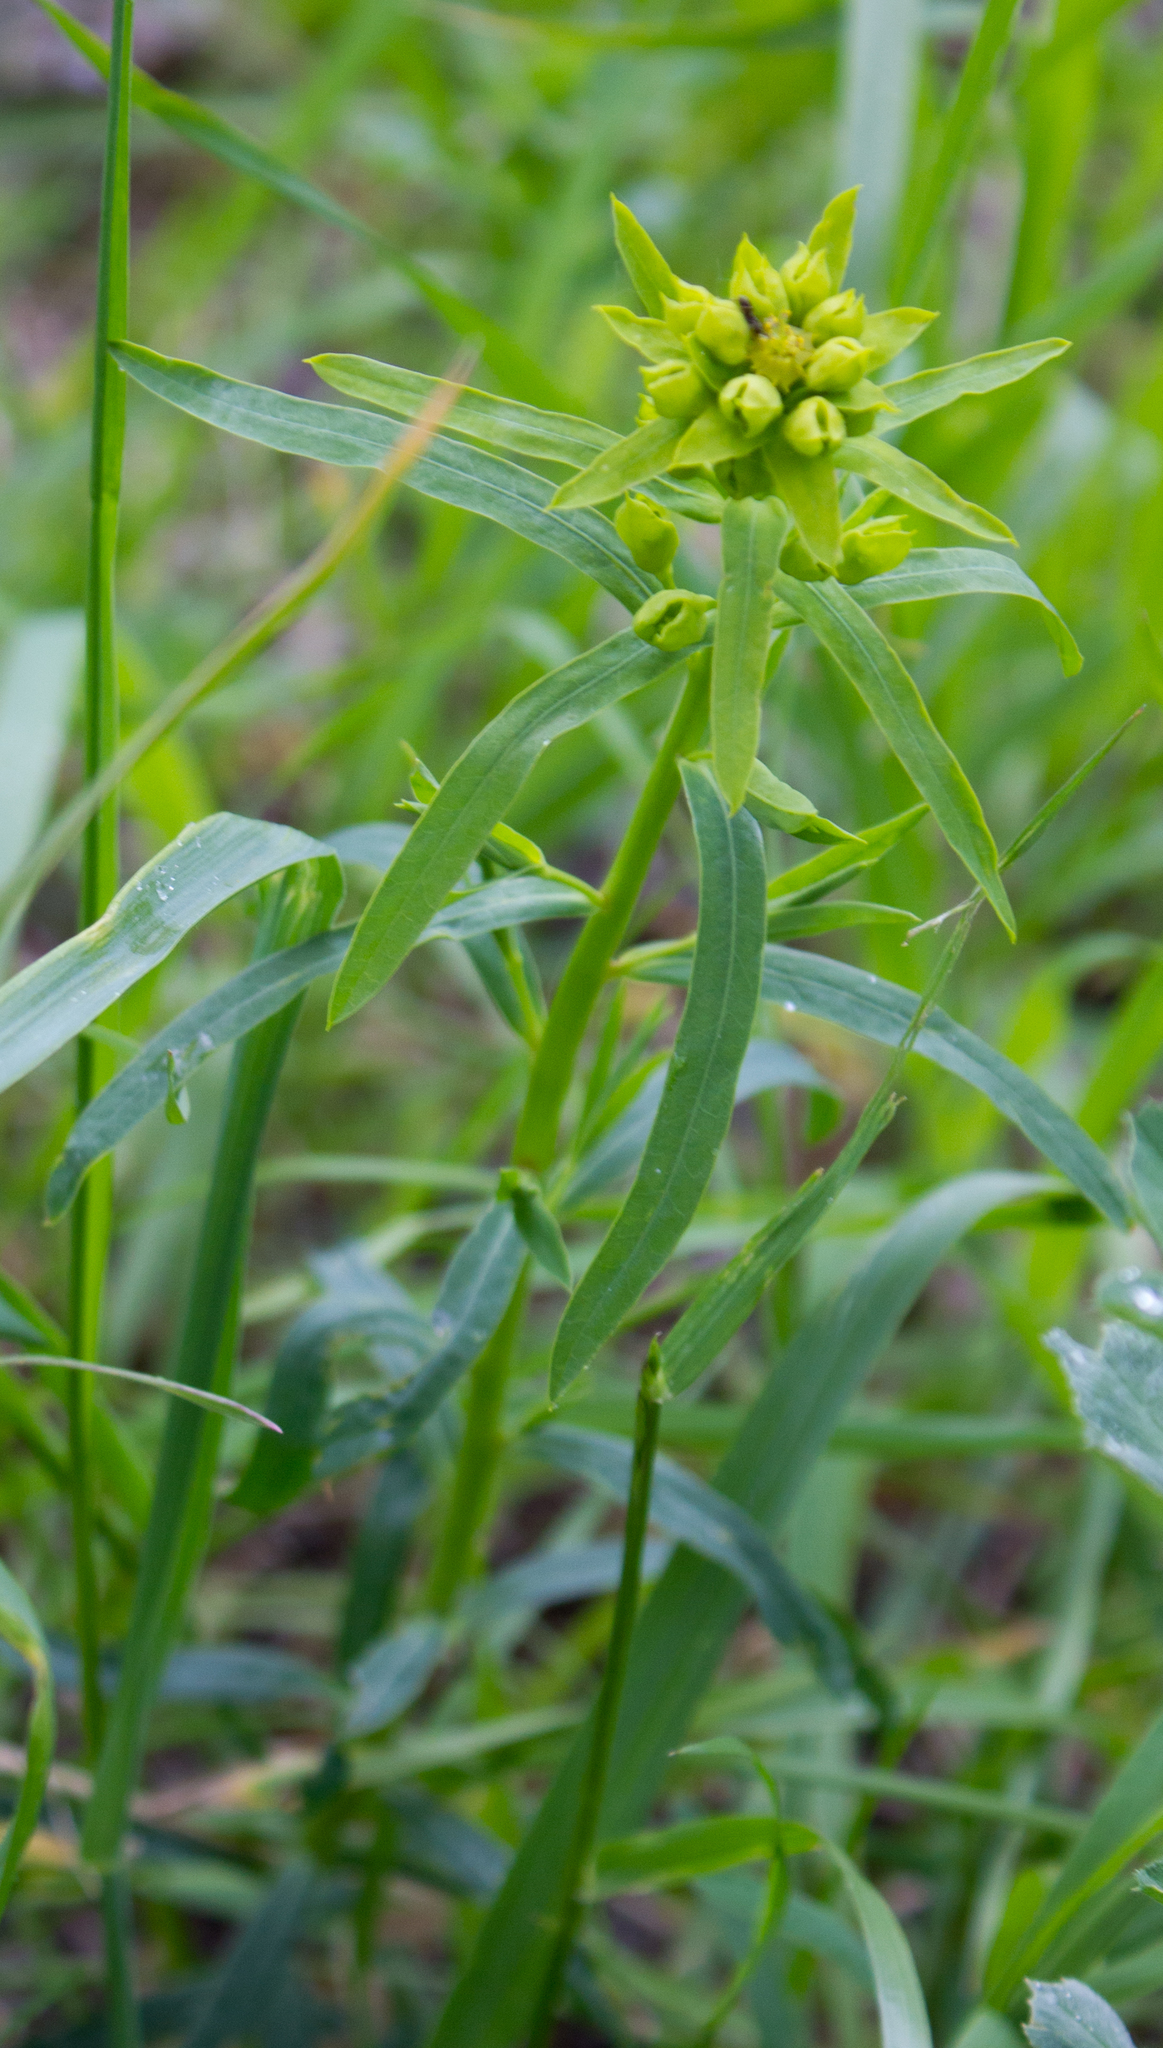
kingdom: Plantae
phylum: Tracheophyta
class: Magnoliopsida
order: Malpighiales
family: Euphorbiaceae
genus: Euphorbia
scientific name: Euphorbia virgata
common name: Leafy spurge
